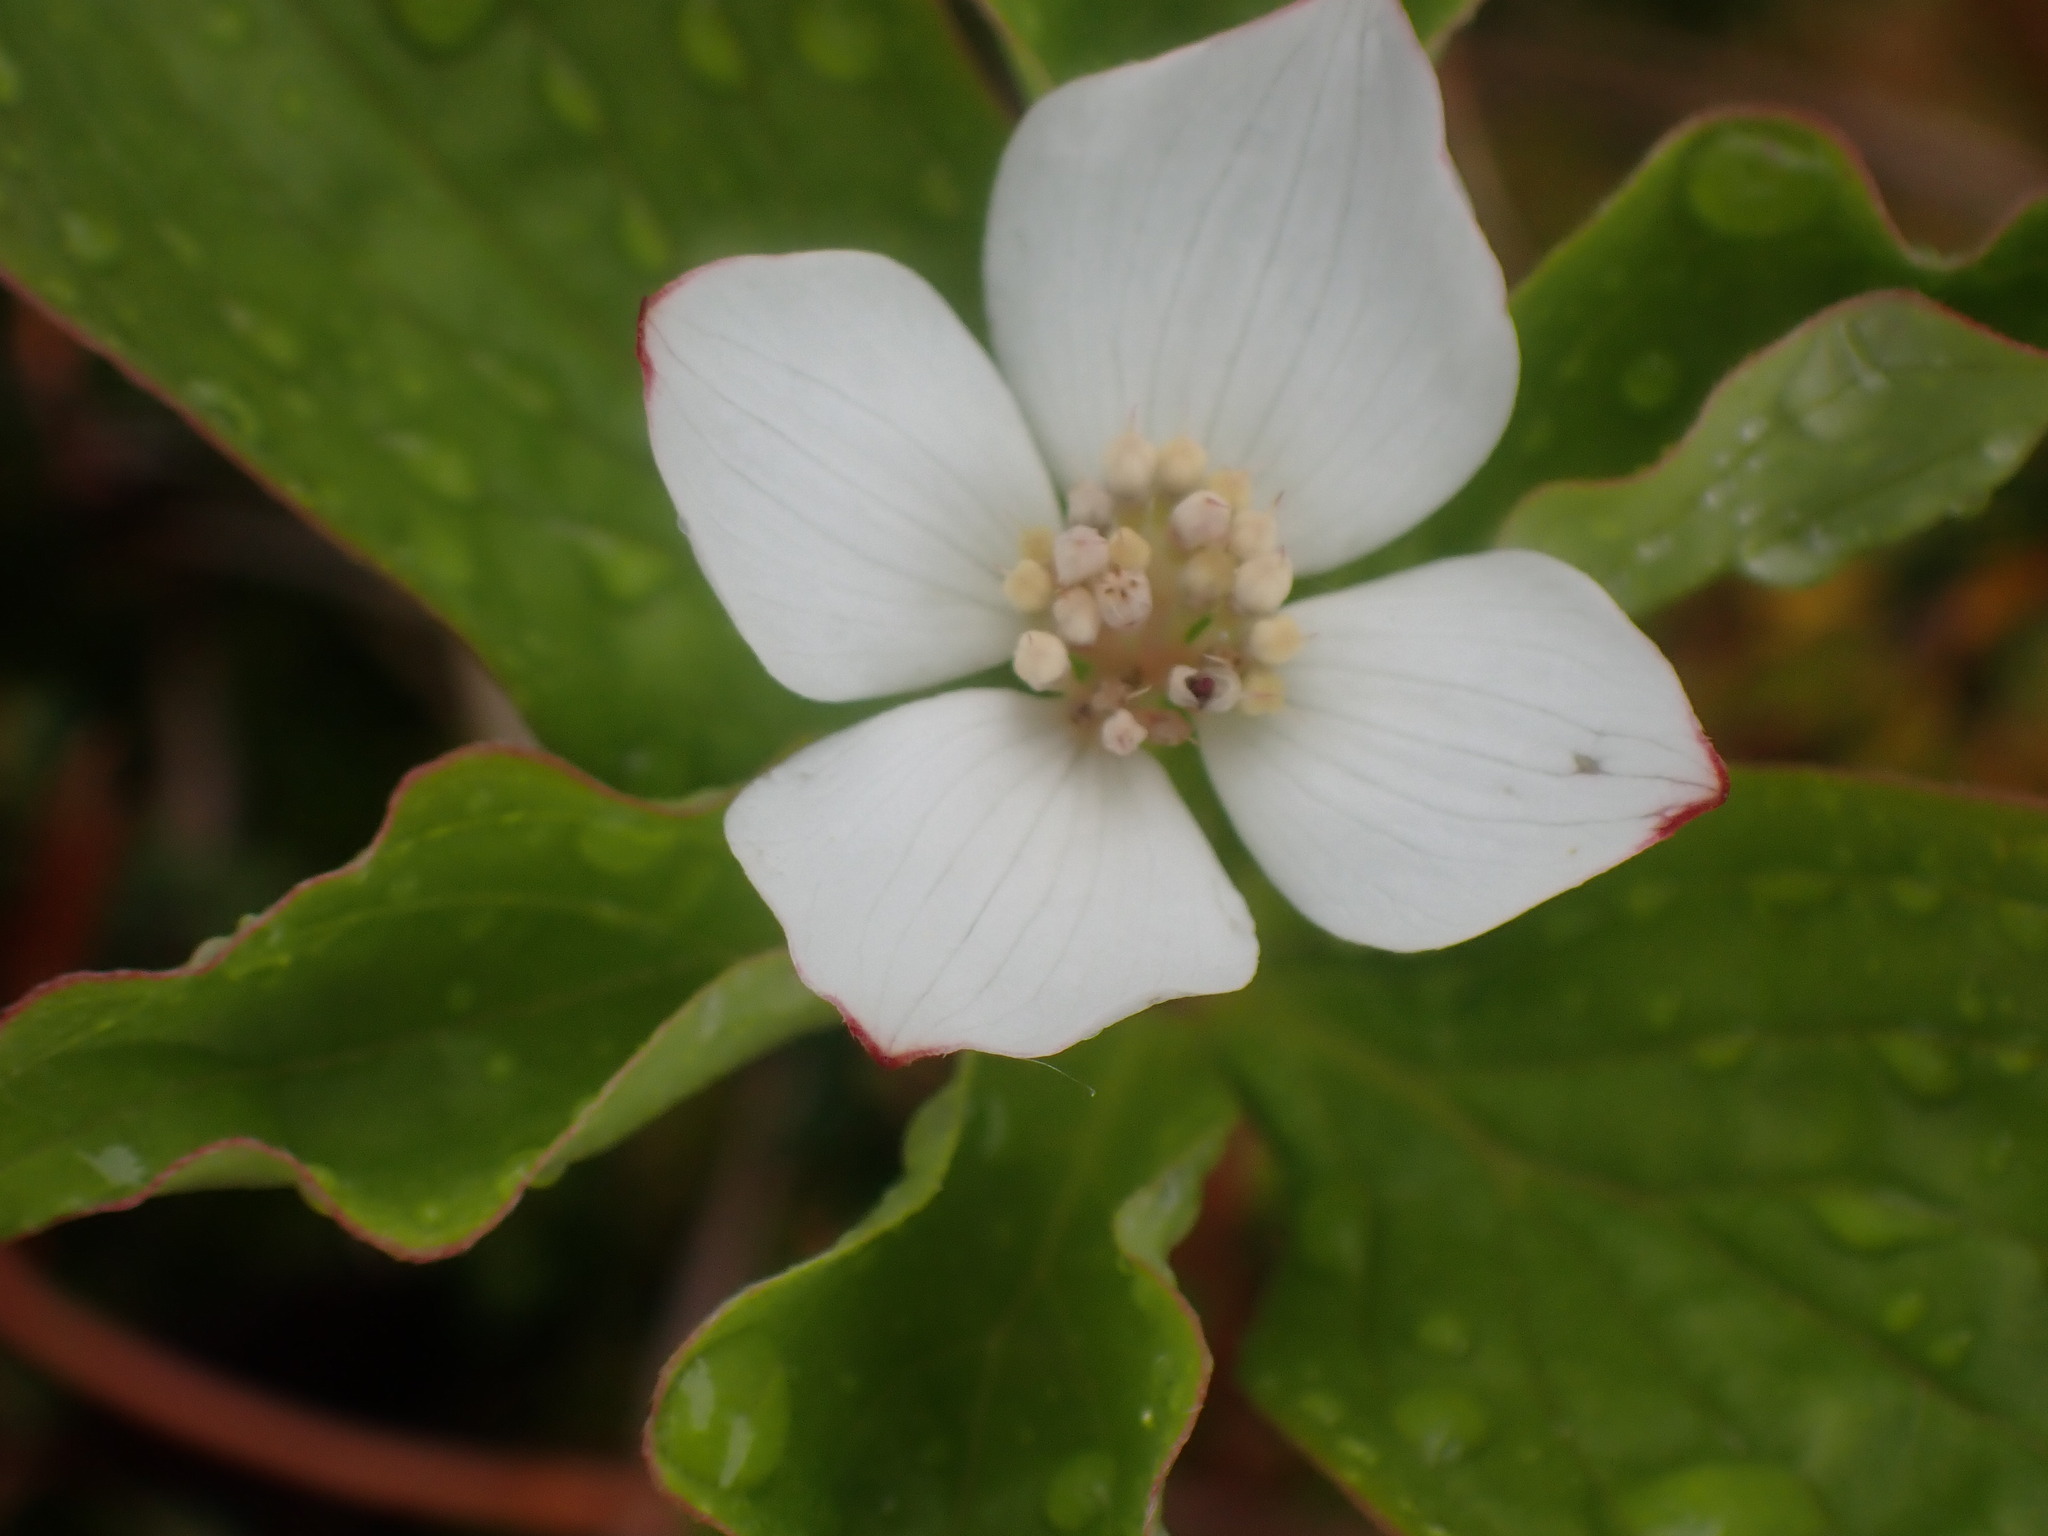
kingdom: Plantae
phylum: Tracheophyta
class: Magnoliopsida
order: Cornales
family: Cornaceae
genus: Cornus
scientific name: Cornus canadensis
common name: Creeping dogwood
